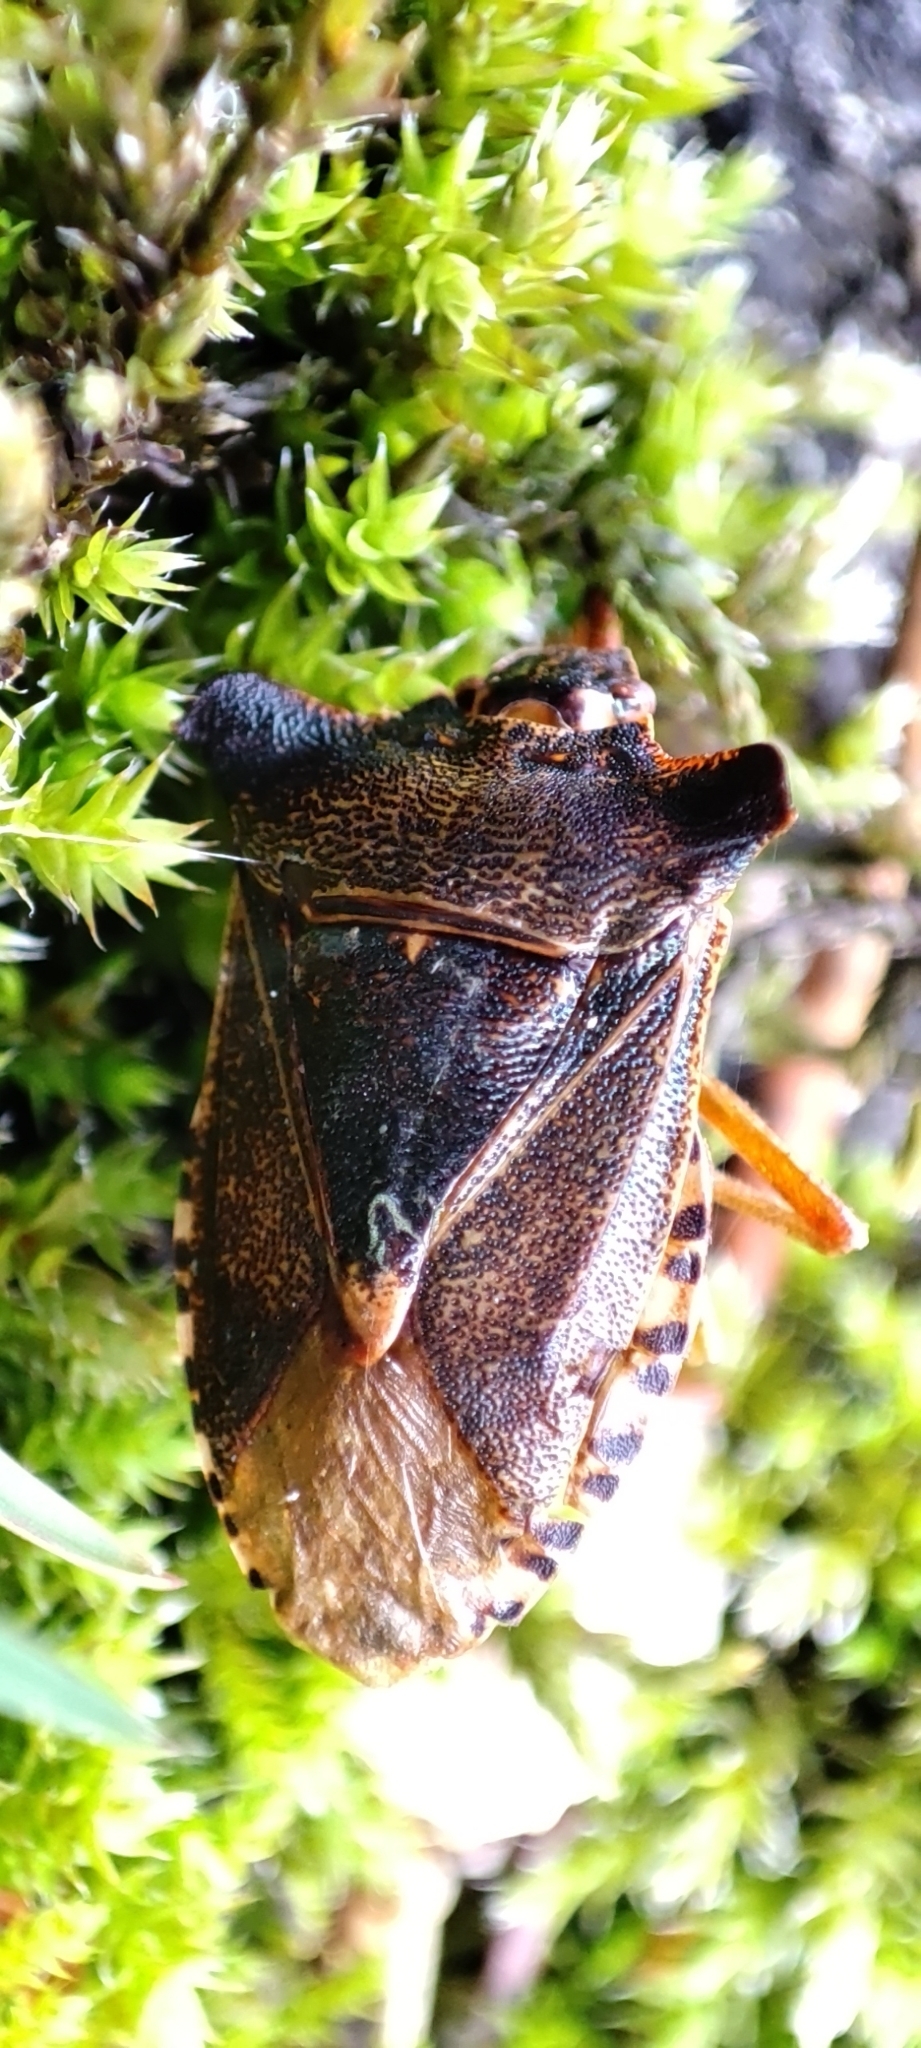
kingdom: Animalia
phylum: Arthropoda
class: Insecta
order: Hemiptera
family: Pentatomidae
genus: Pentatoma
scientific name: Pentatoma rufipes
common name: Forest bug
